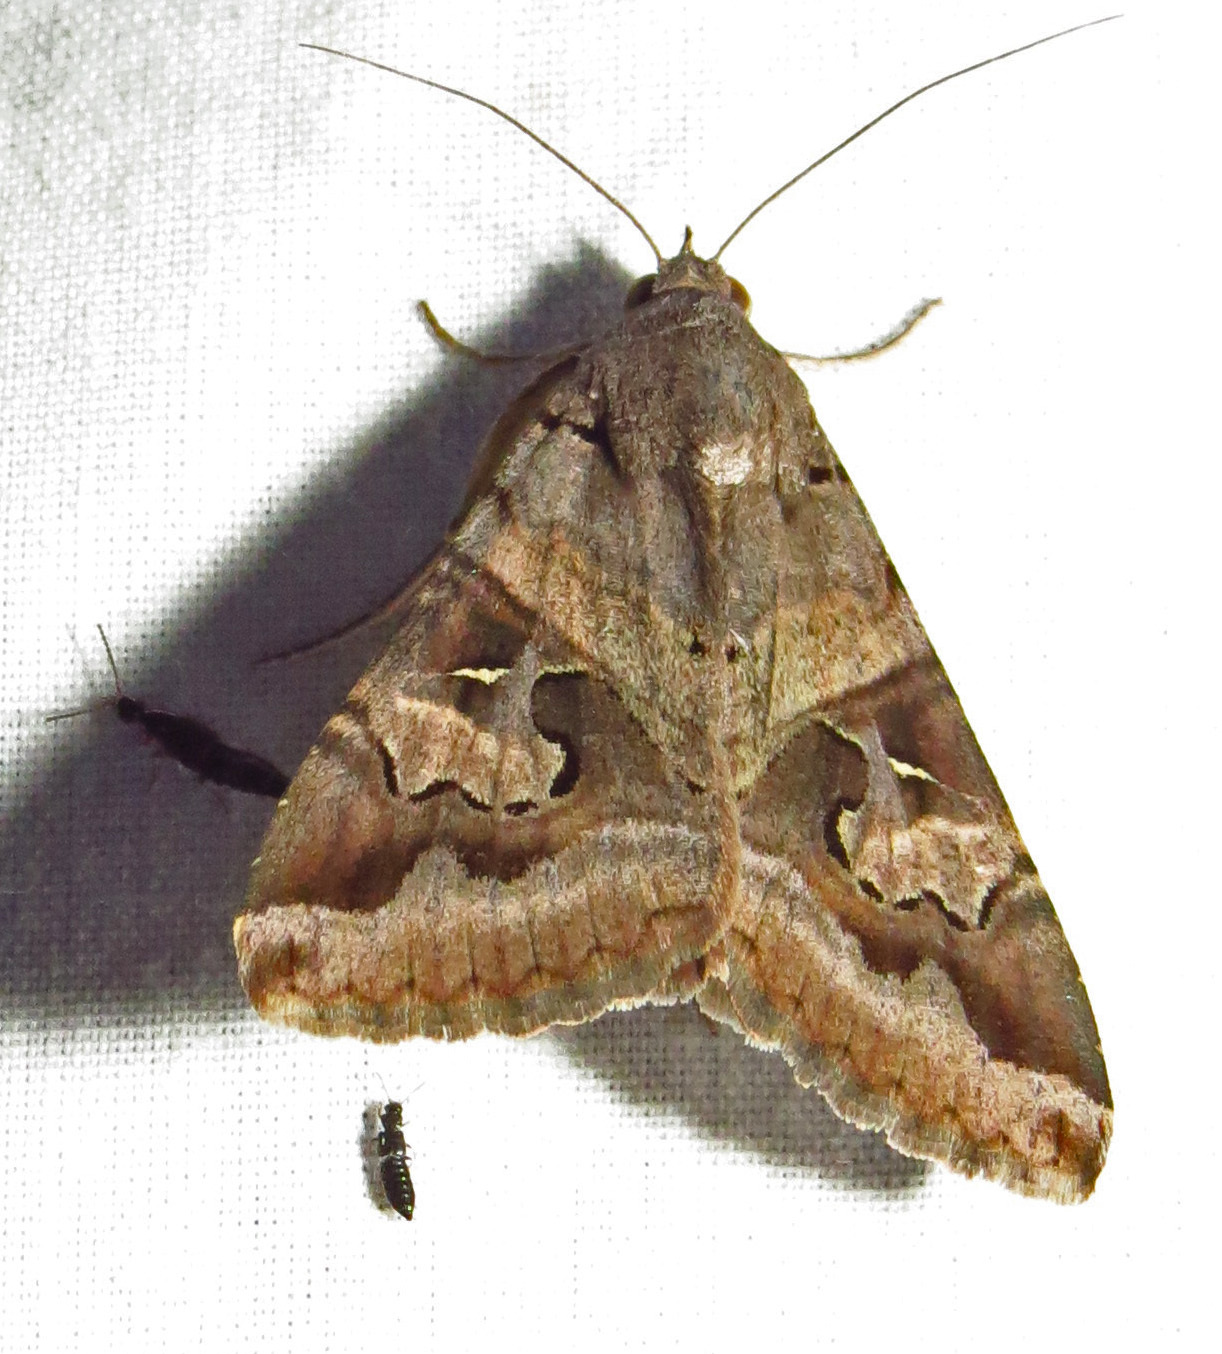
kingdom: Animalia
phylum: Arthropoda
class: Insecta
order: Lepidoptera
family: Erebidae
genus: Melipotis
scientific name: Melipotis indomita
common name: Moth
